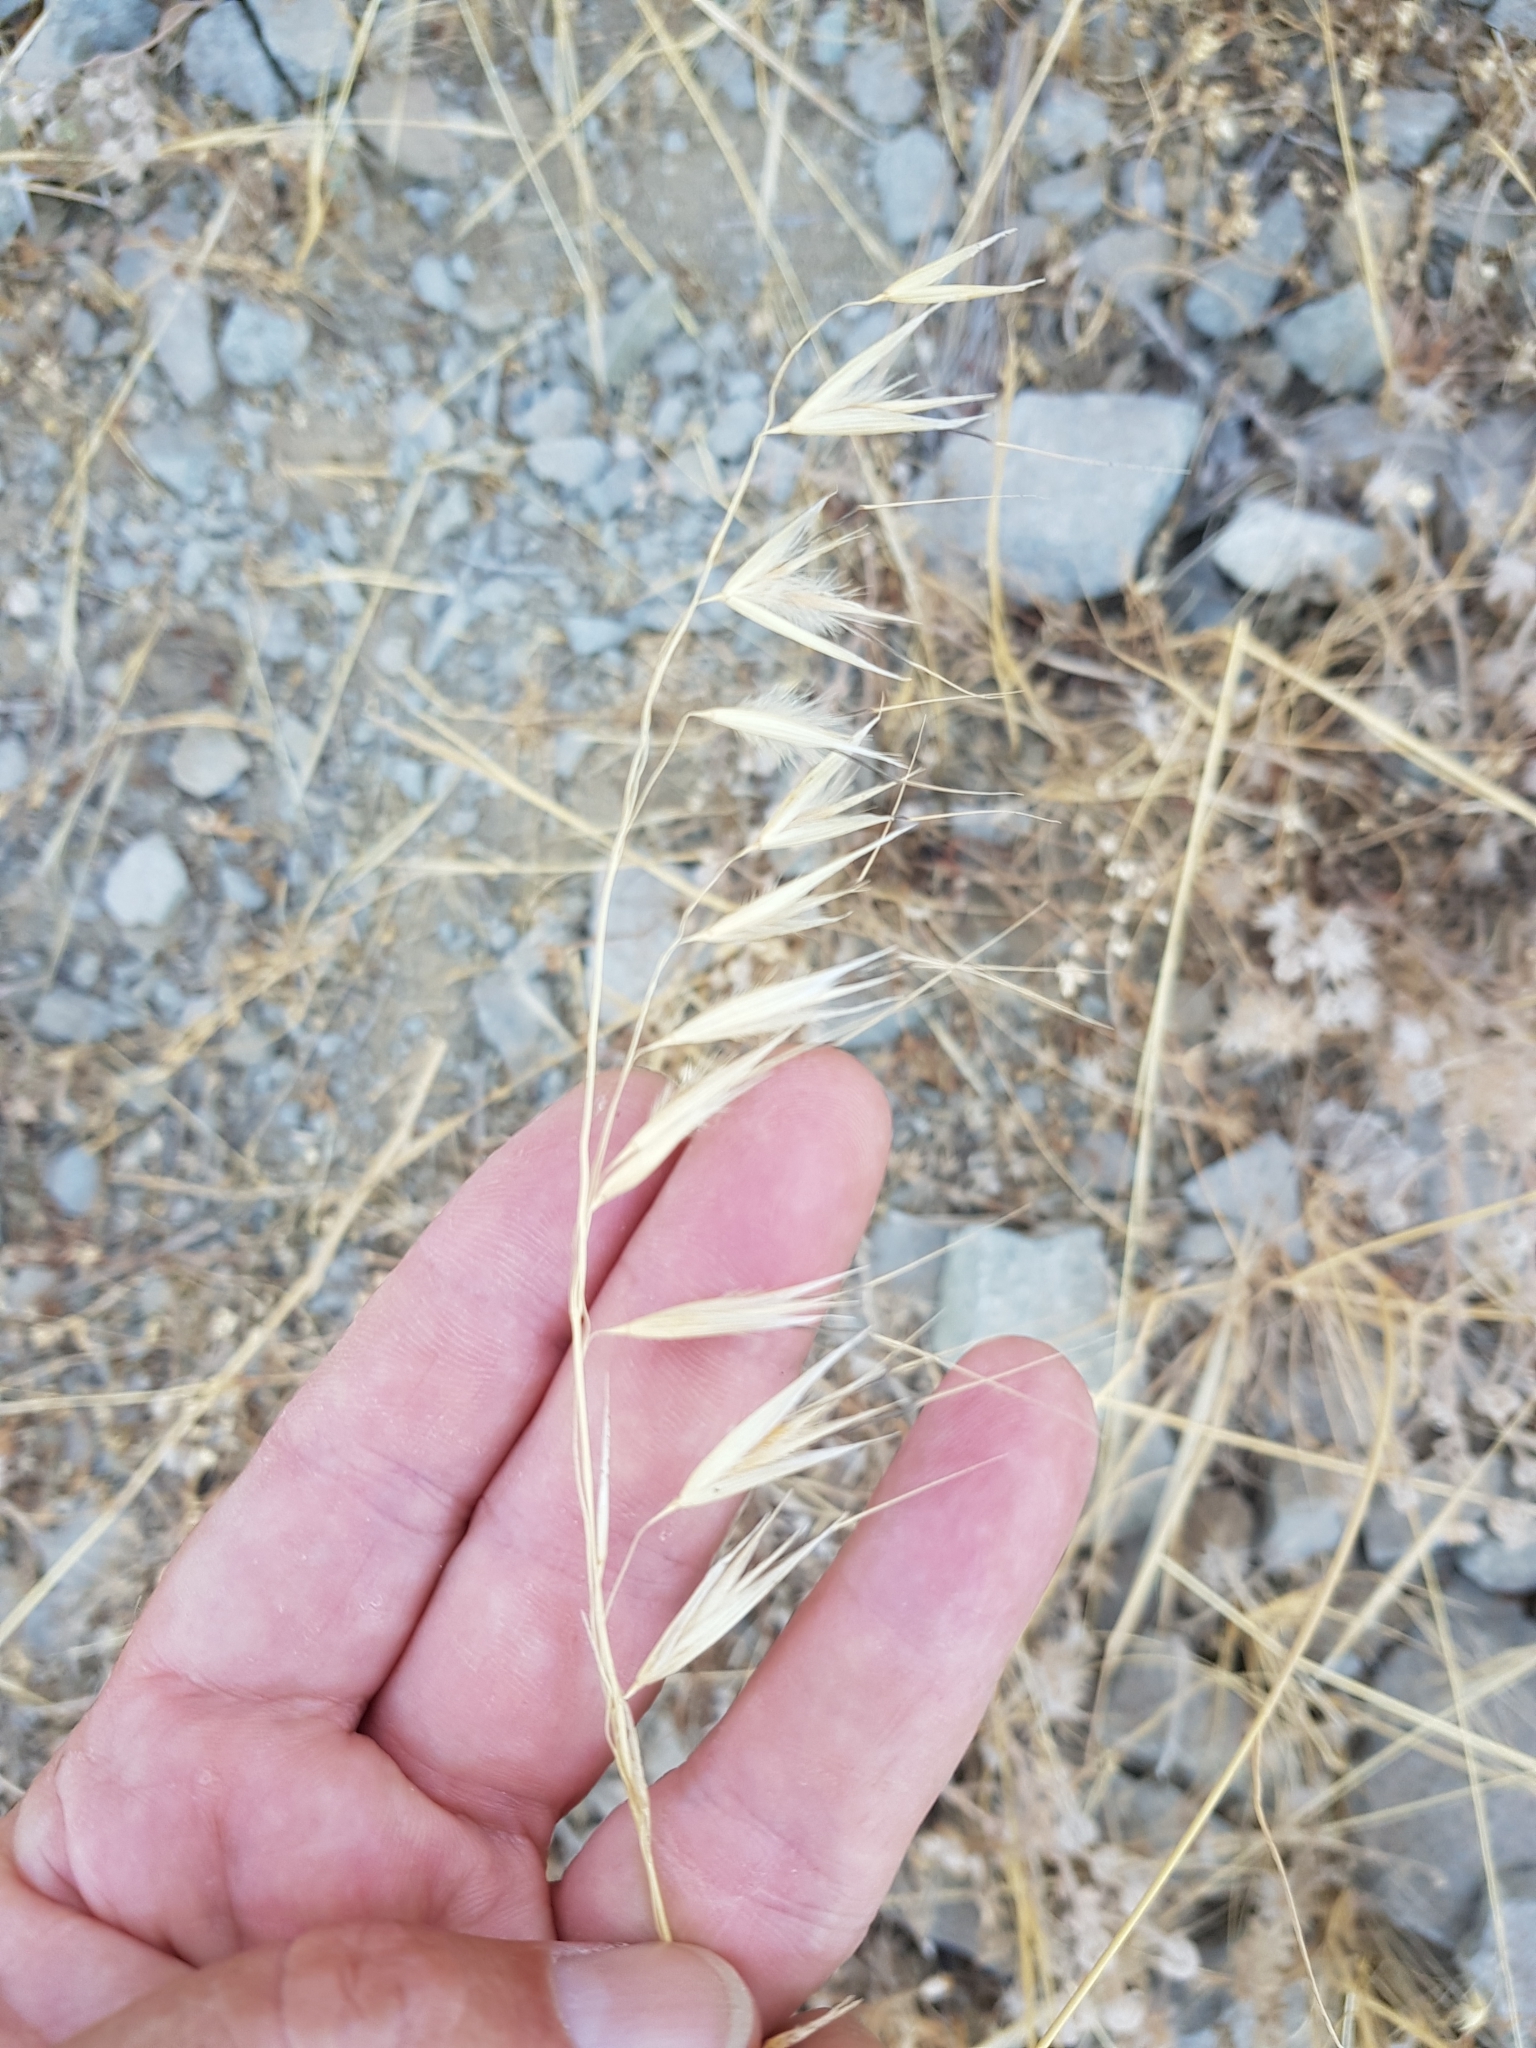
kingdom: Plantae
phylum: Tracheophyta
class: Liliopsida
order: Poales
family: Poaceae
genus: Avena
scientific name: Avena barbata
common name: Slender oat
